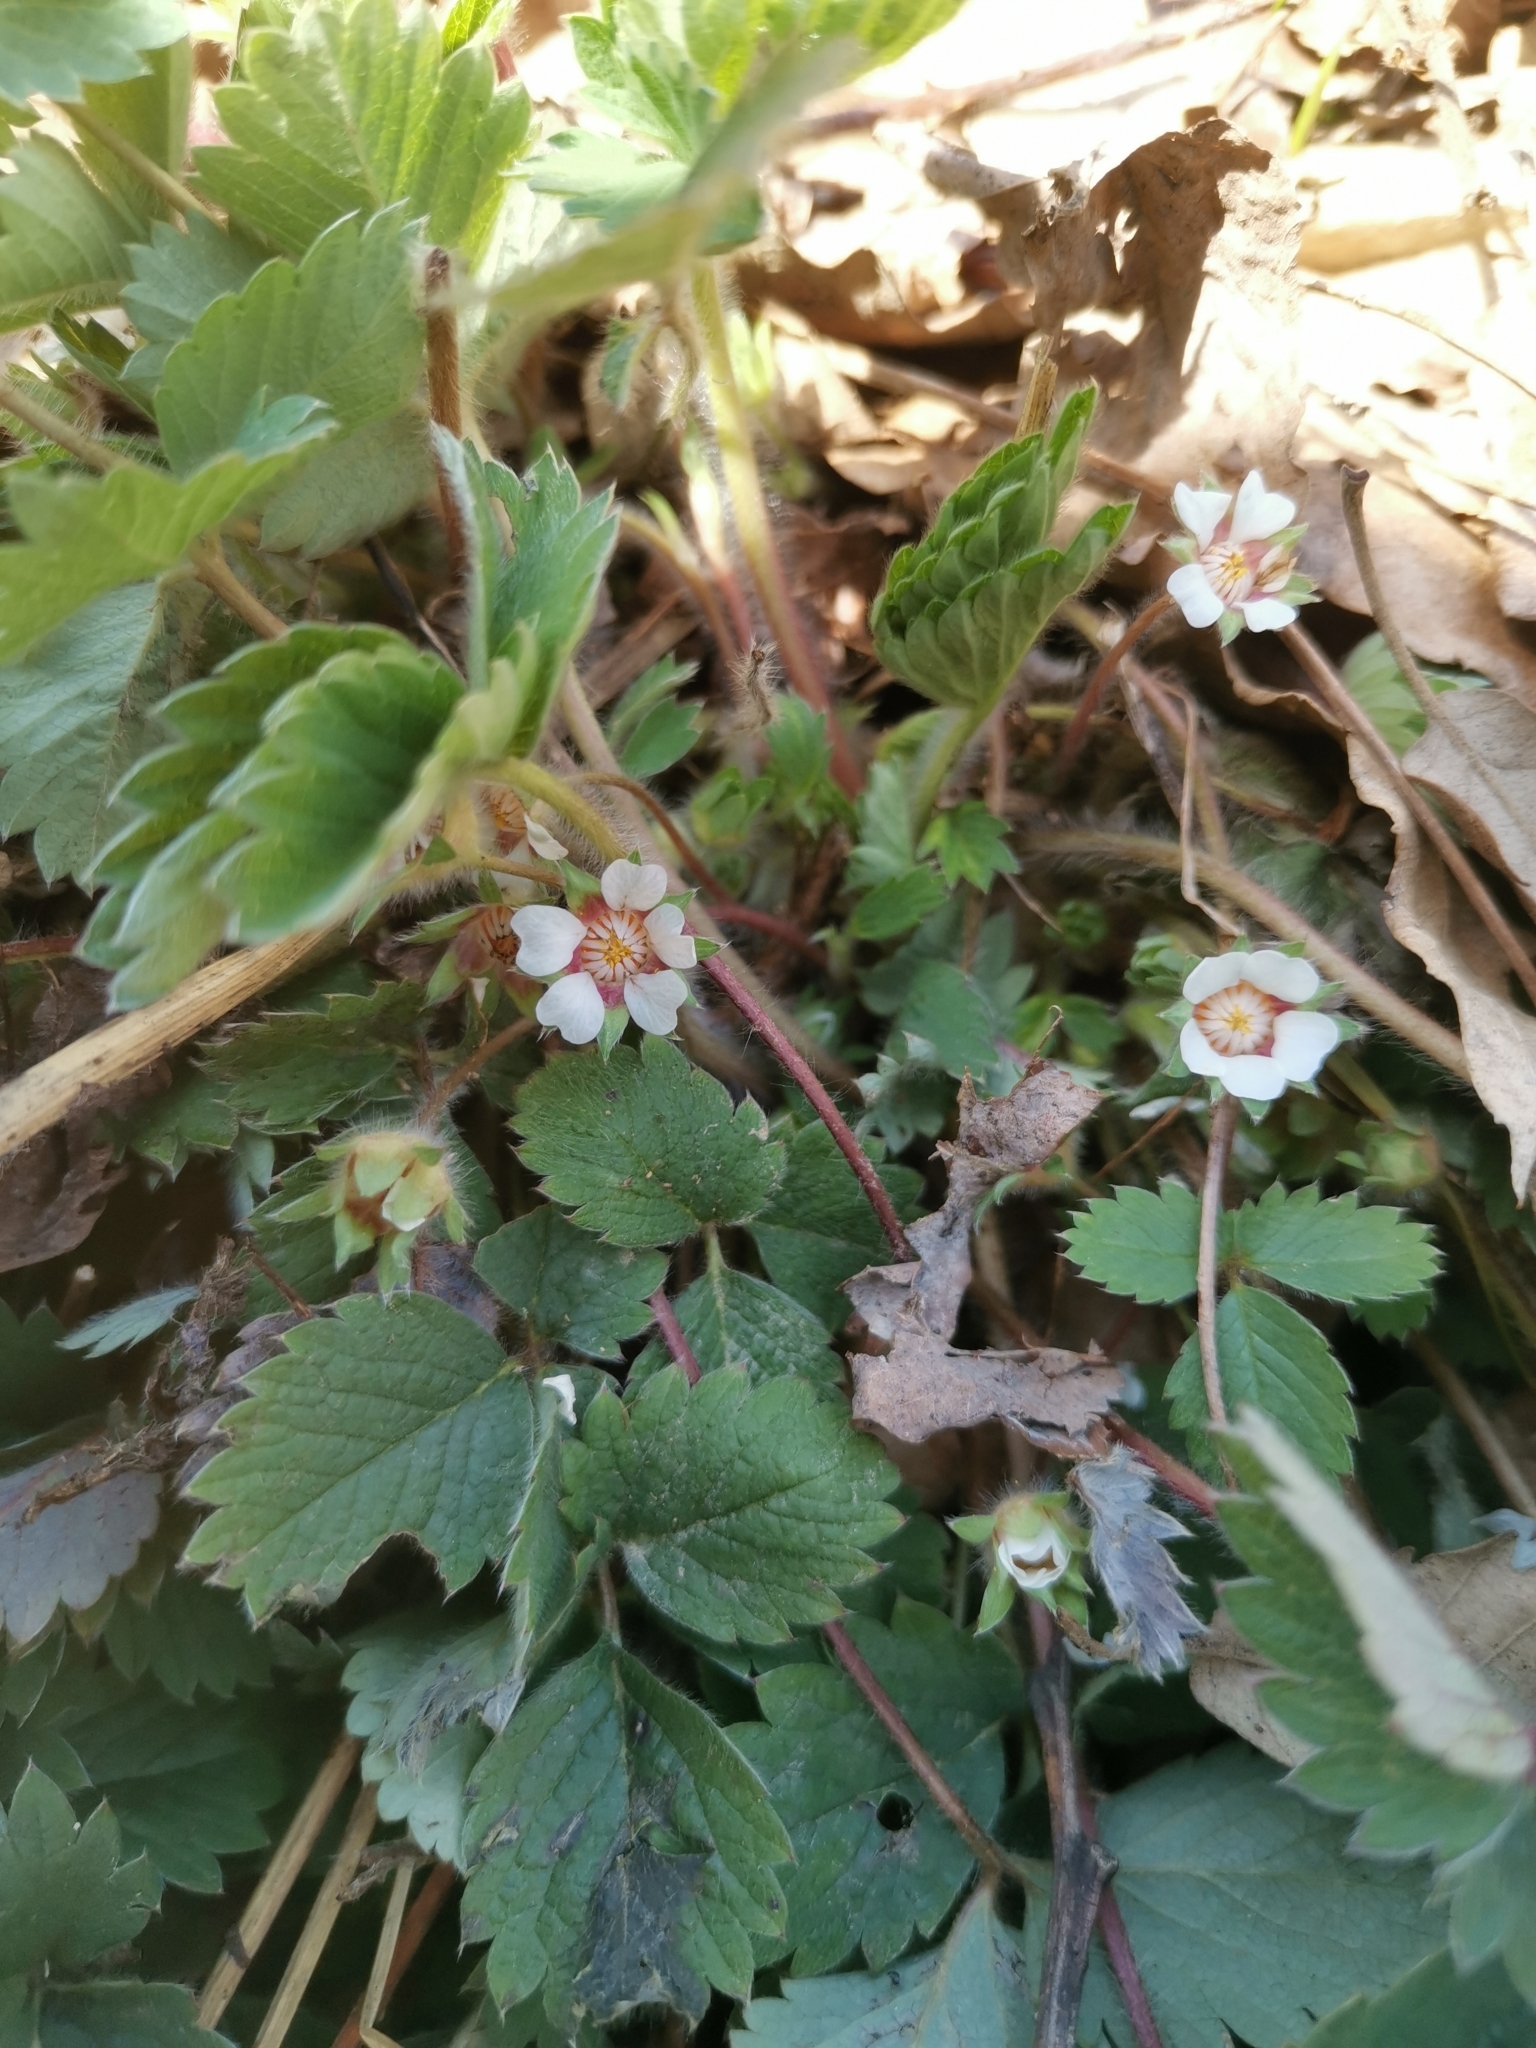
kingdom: Plantae
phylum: Tracheophyta
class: Magnoliopsida
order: Rosales
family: Rosaceae
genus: Potentilla
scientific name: Potentilla micrantha
